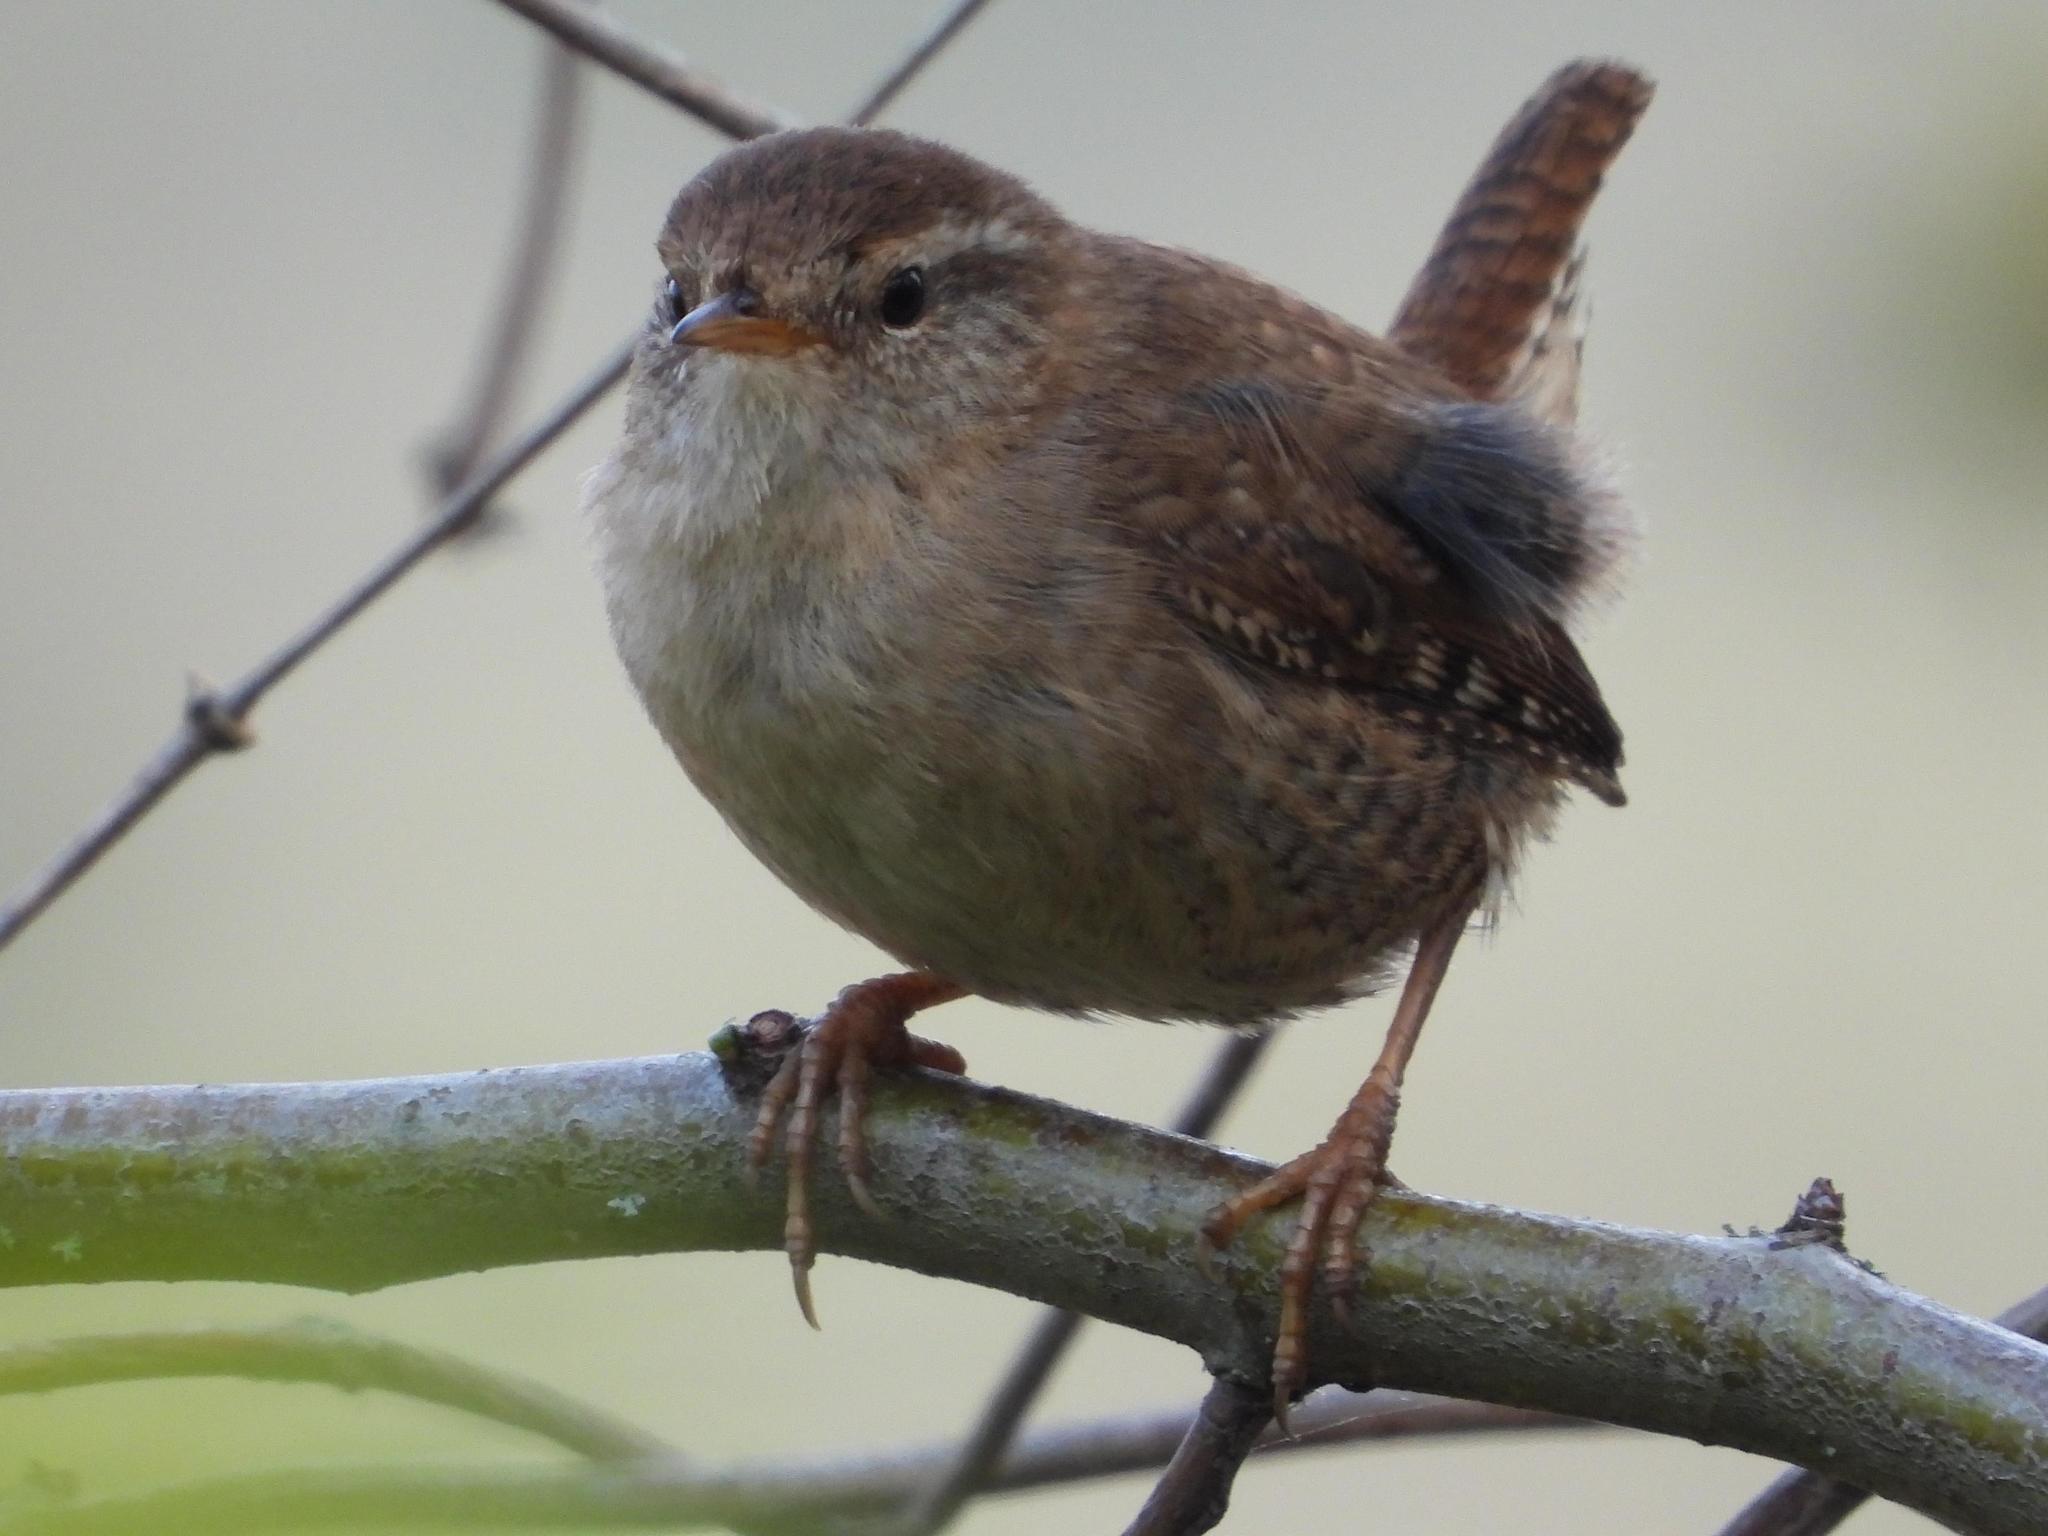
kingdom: Animalia
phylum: Chordata
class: Aves
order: Passeriformes
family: Troglodytidae
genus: Troglodytes
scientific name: Troglodytes troglodytes
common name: Eurasian wren
